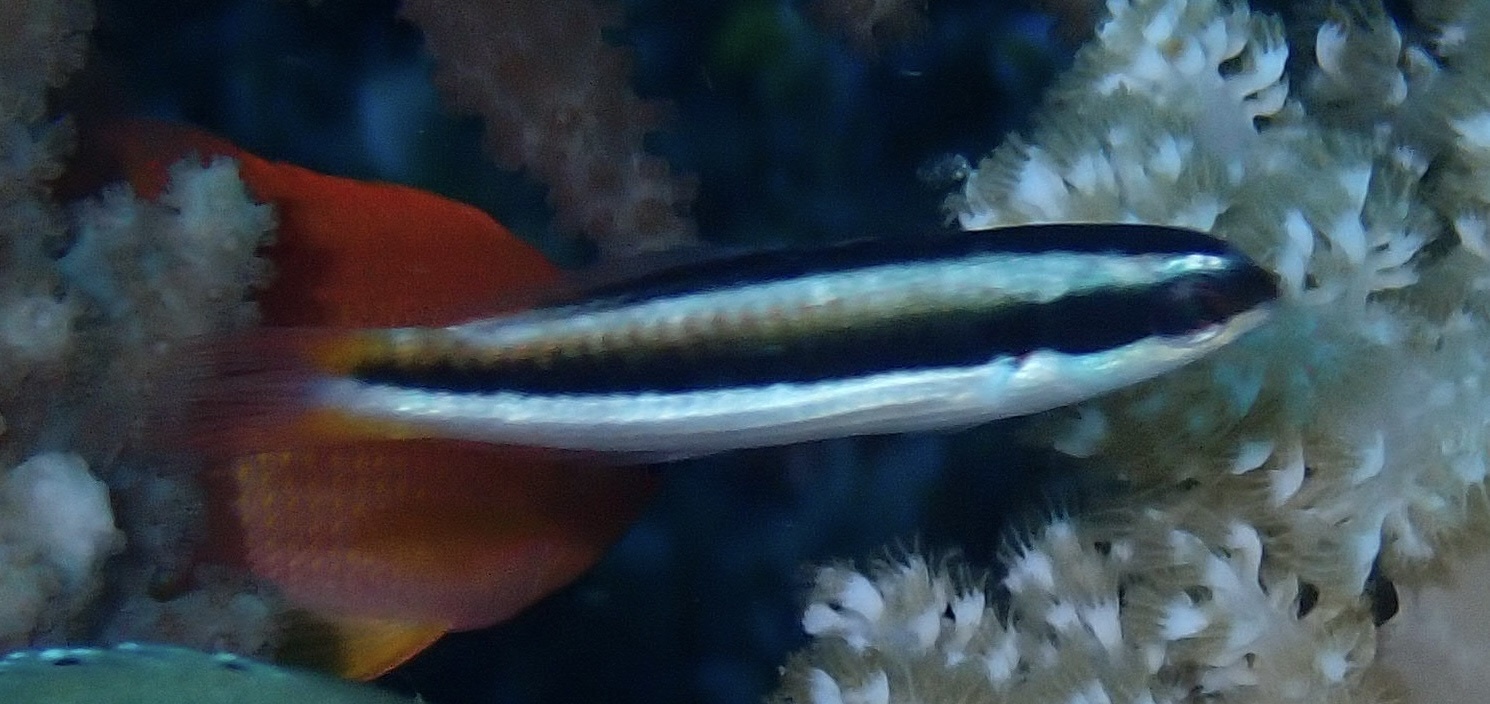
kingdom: Animalia
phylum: Chordata
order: Perciformes
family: Labridae
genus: Thalassoma
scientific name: Thalassoma amblycephalum
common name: Bluehead wrasse
